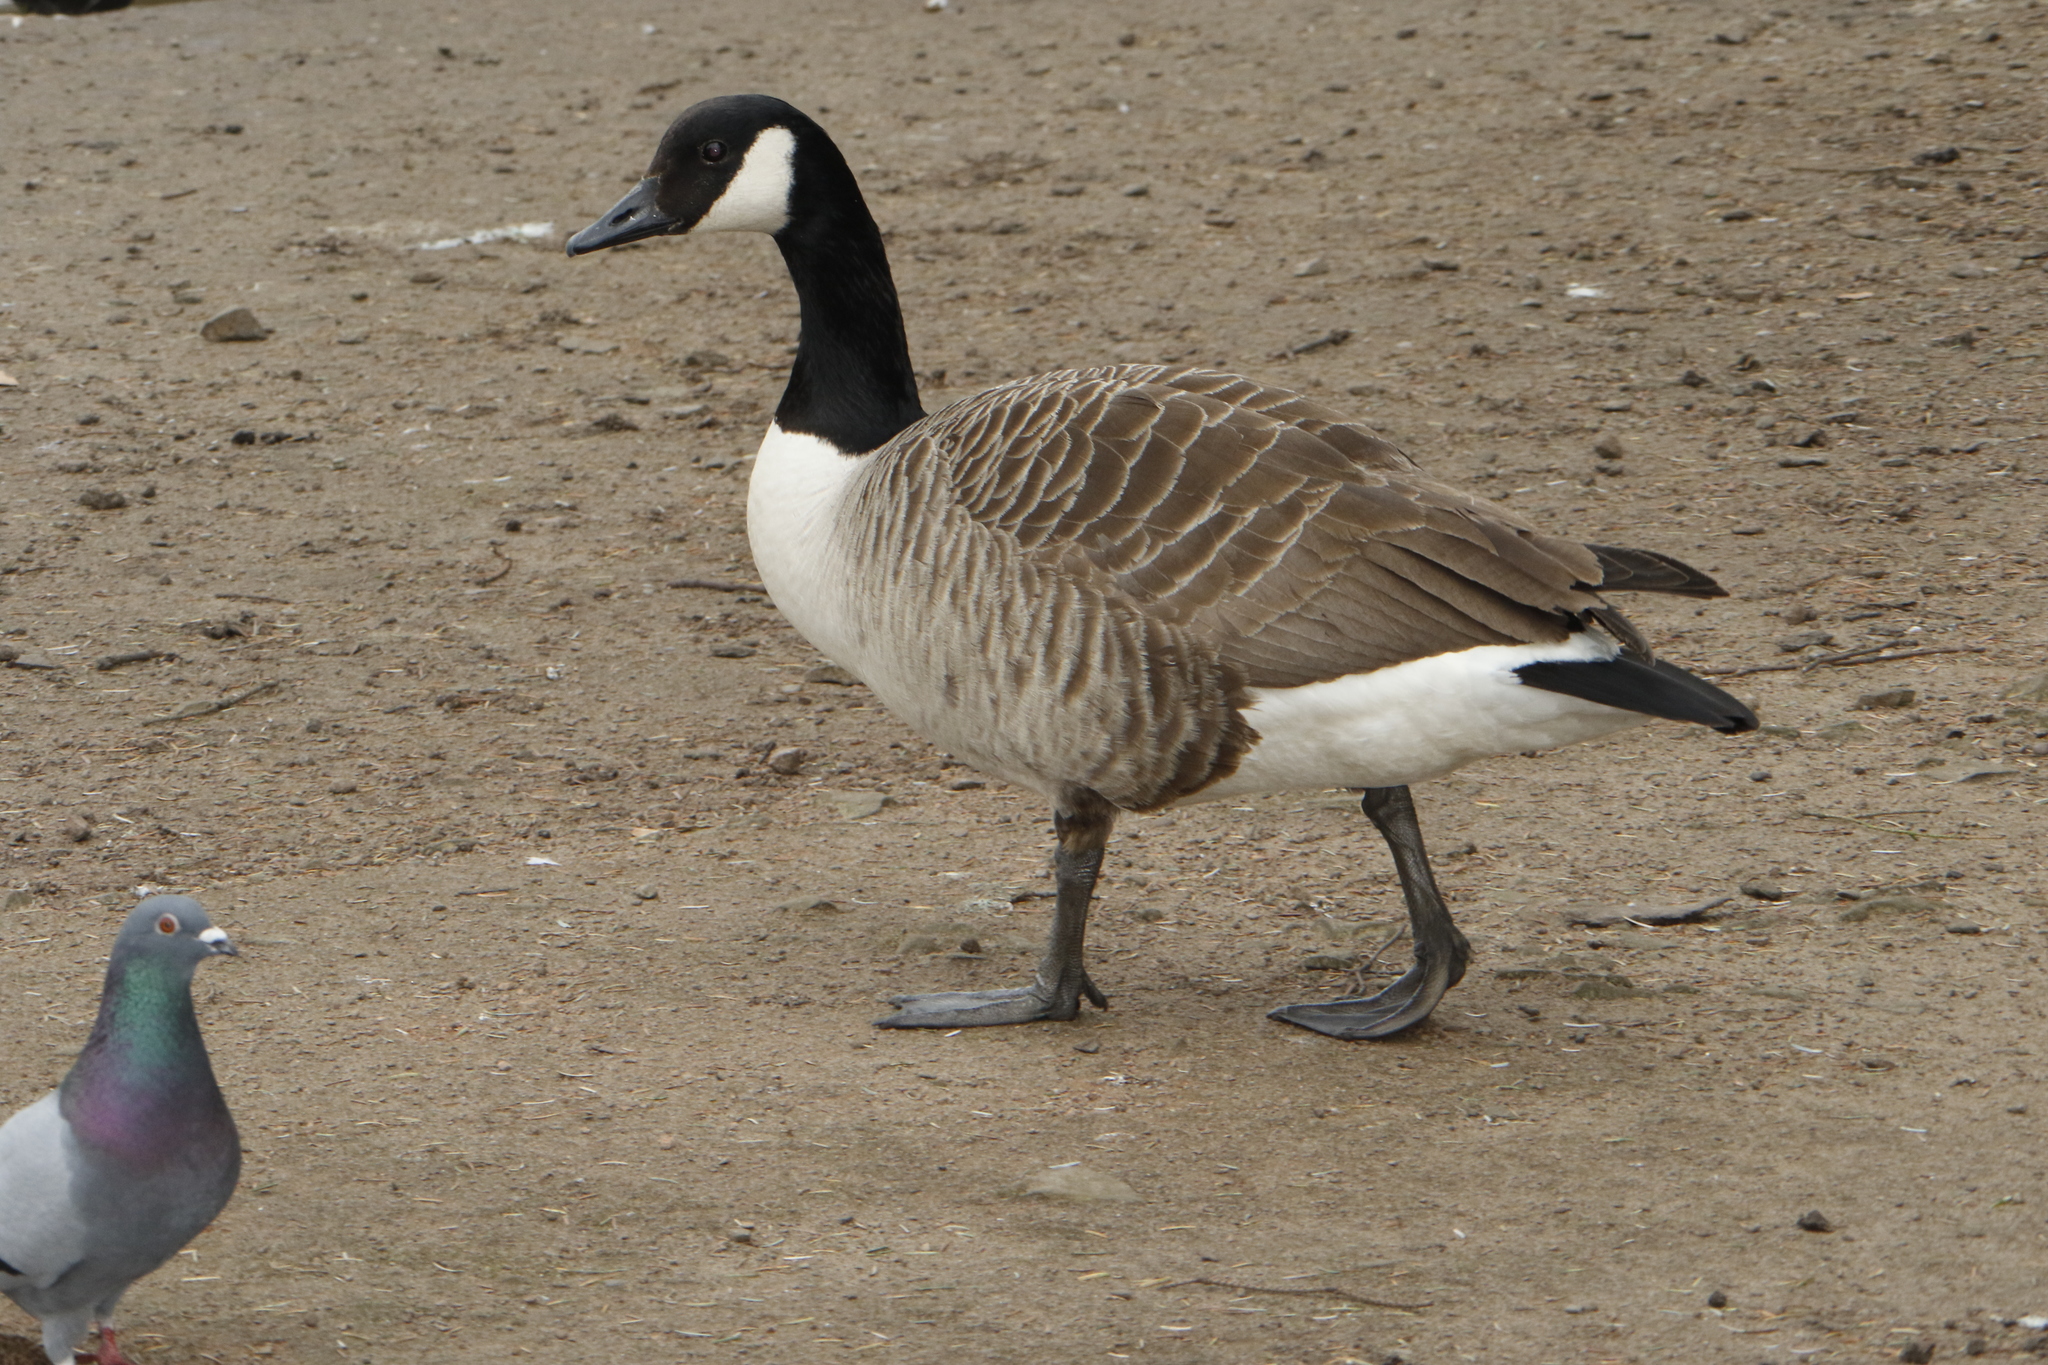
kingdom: Animalia
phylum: Chordata
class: Aves
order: Anseriformes
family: Anatidae
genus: Branta
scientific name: Branta canadensis
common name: Canada goose
